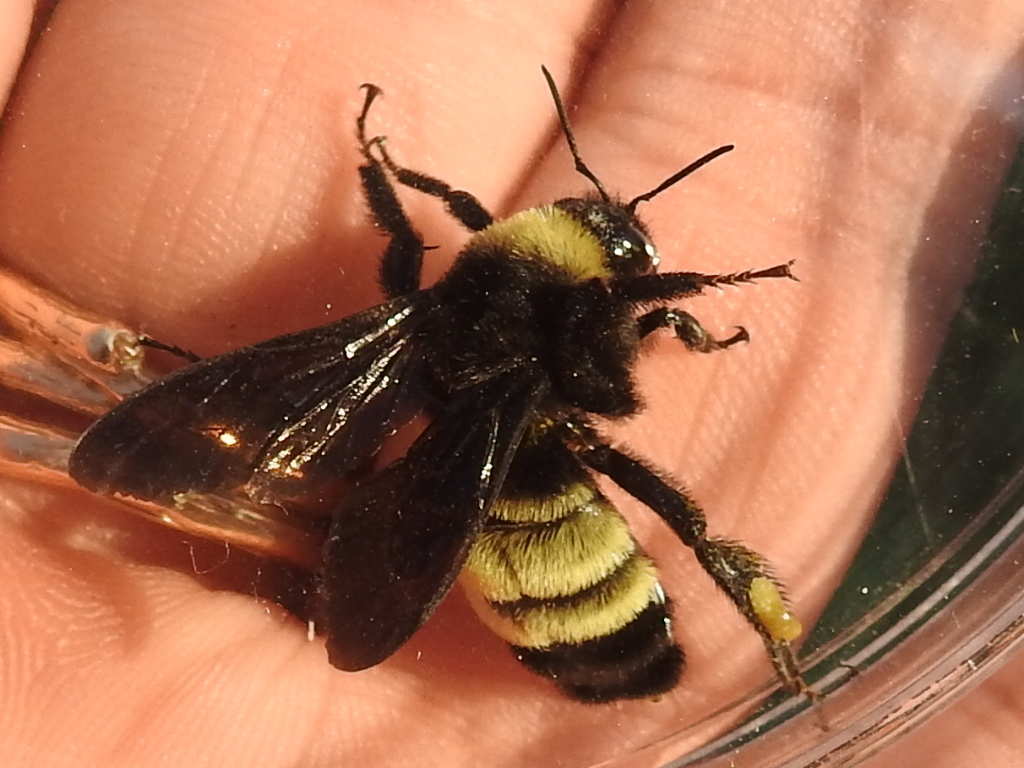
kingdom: Animalia
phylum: Arthropoda
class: Insecta
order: Hymenoptera
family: Apidae
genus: Bombus
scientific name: Bombus pensylvanicus
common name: Bumble bee
